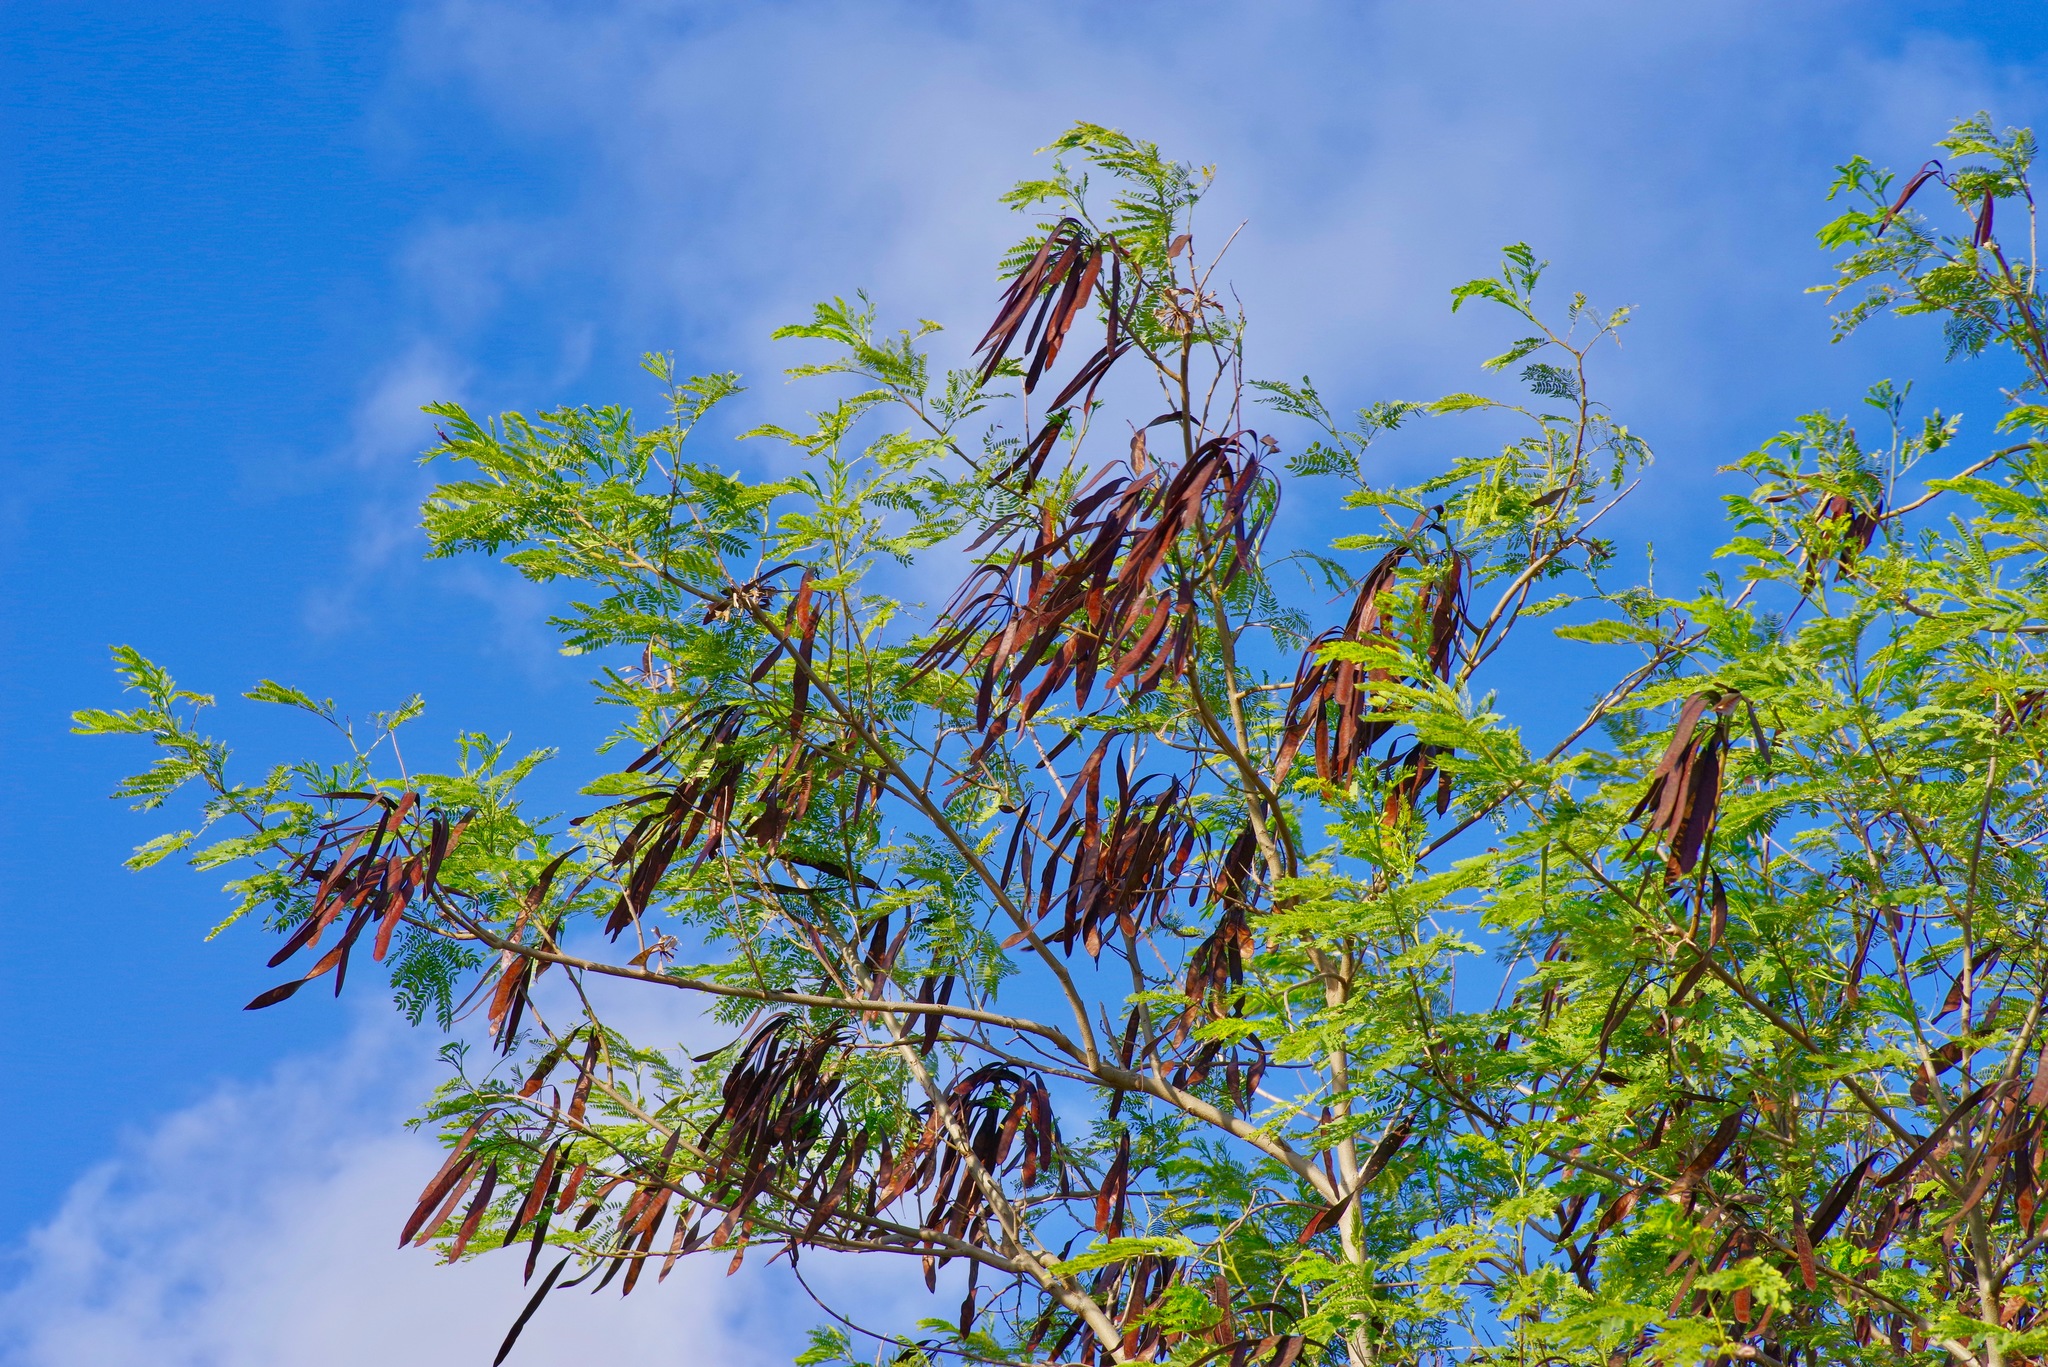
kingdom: Plantae
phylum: Tracheophyta
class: Magnoliopsida
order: Fabales
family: Fabaceae
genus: Leucaena
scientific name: Leucaena leucocephala
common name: White leadtree
